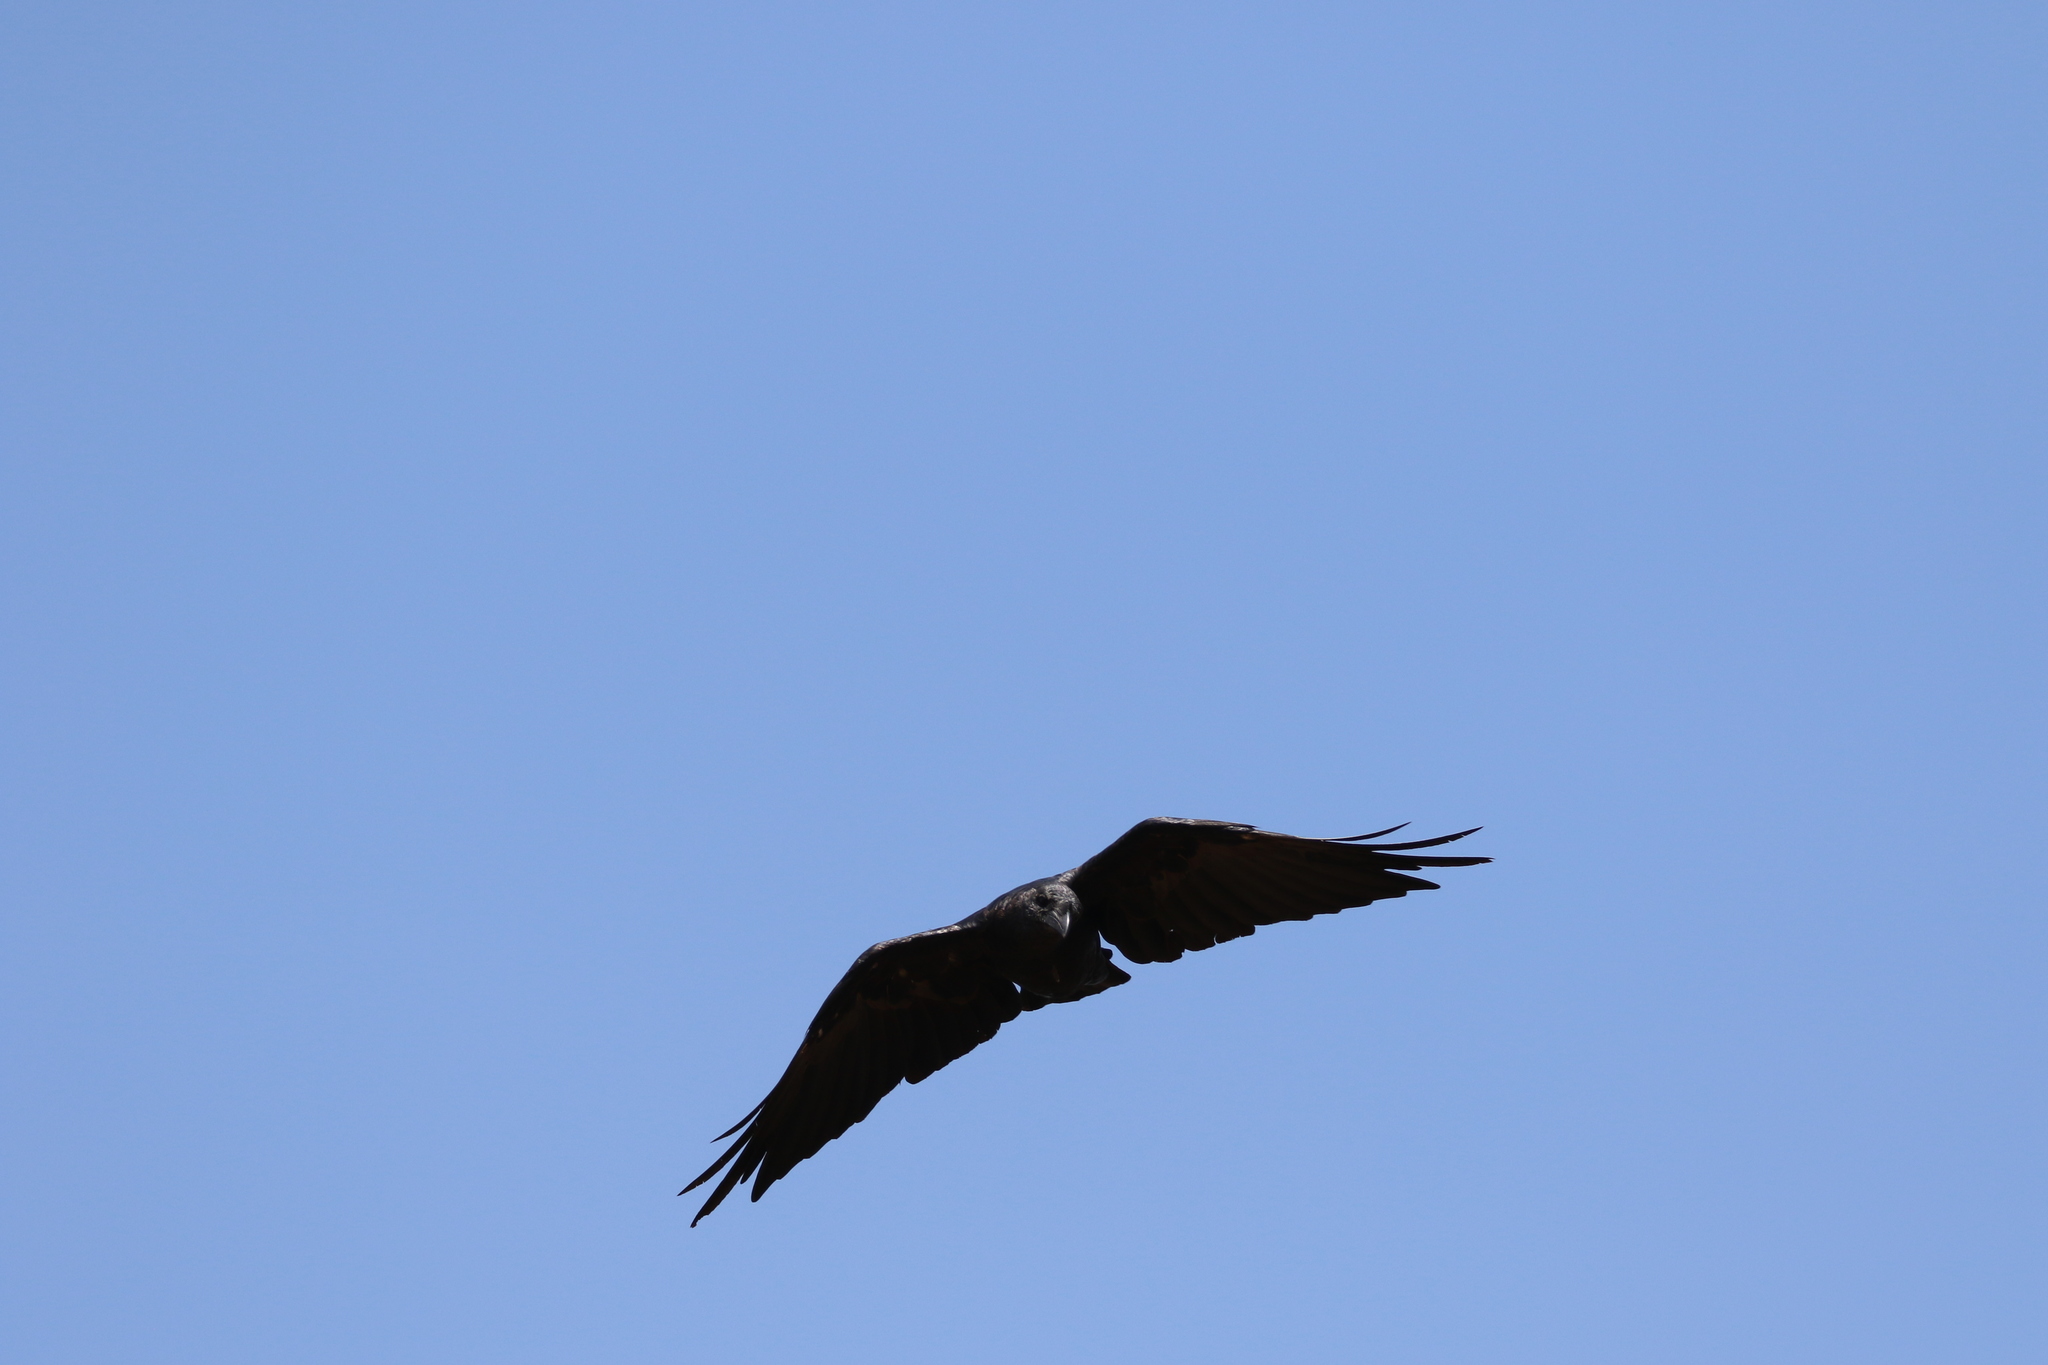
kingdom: Animalia
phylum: Chordata
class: Aves
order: Passeriformes
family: Corvidae
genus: Corvus
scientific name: Corvus rhipidurus
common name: Fan-tailed raven
